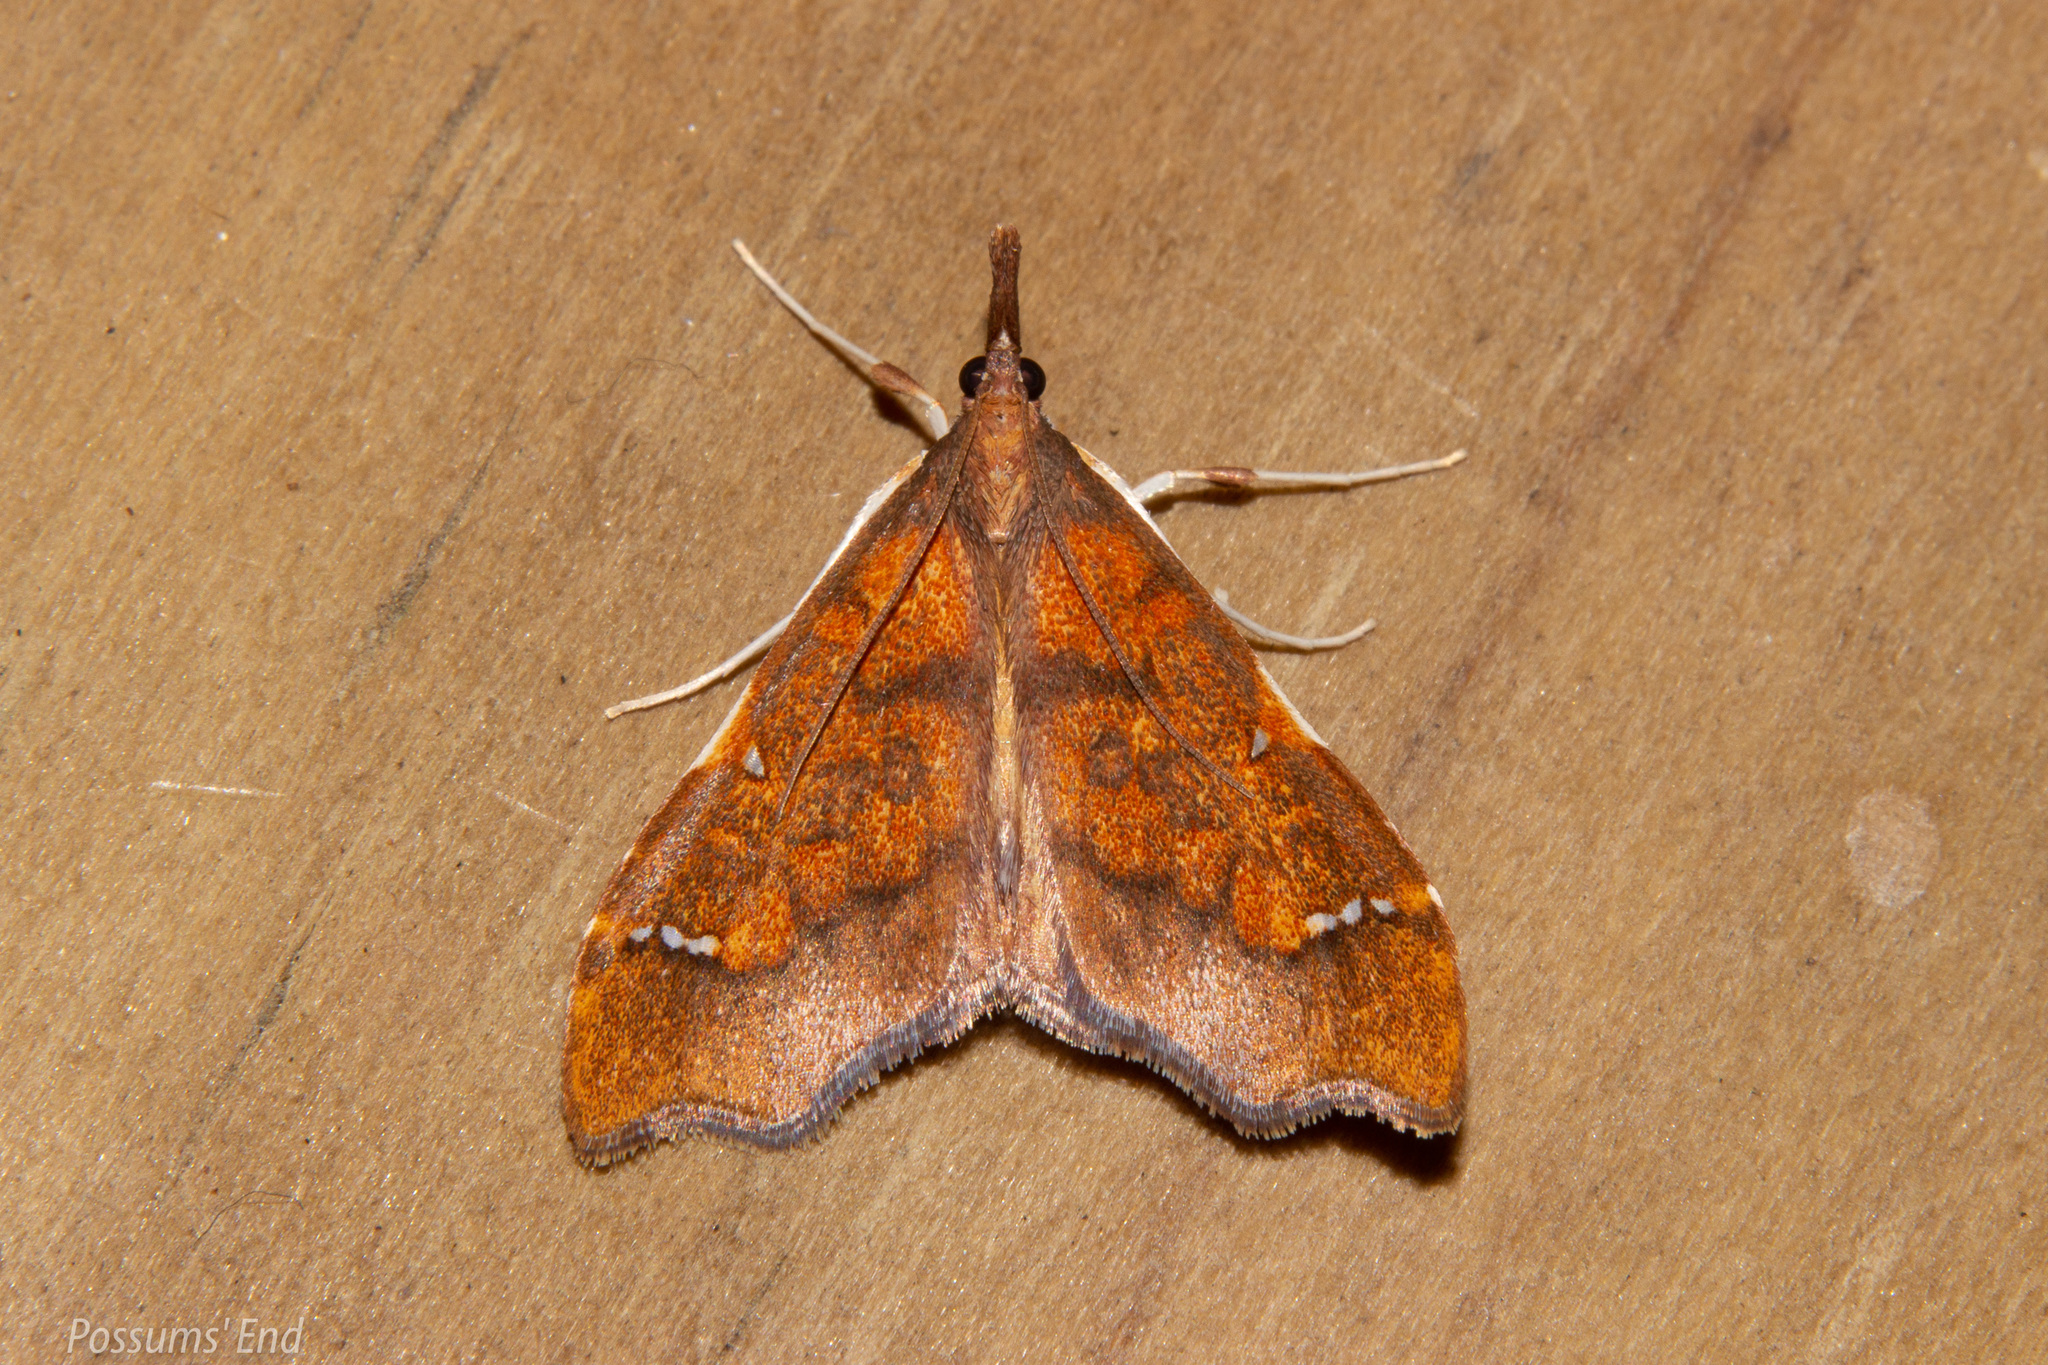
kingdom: Animalia
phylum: Arthropoda
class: Insecta
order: Lepidoptera
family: Crambidae
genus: Deana
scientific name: Deana hybreasalis
